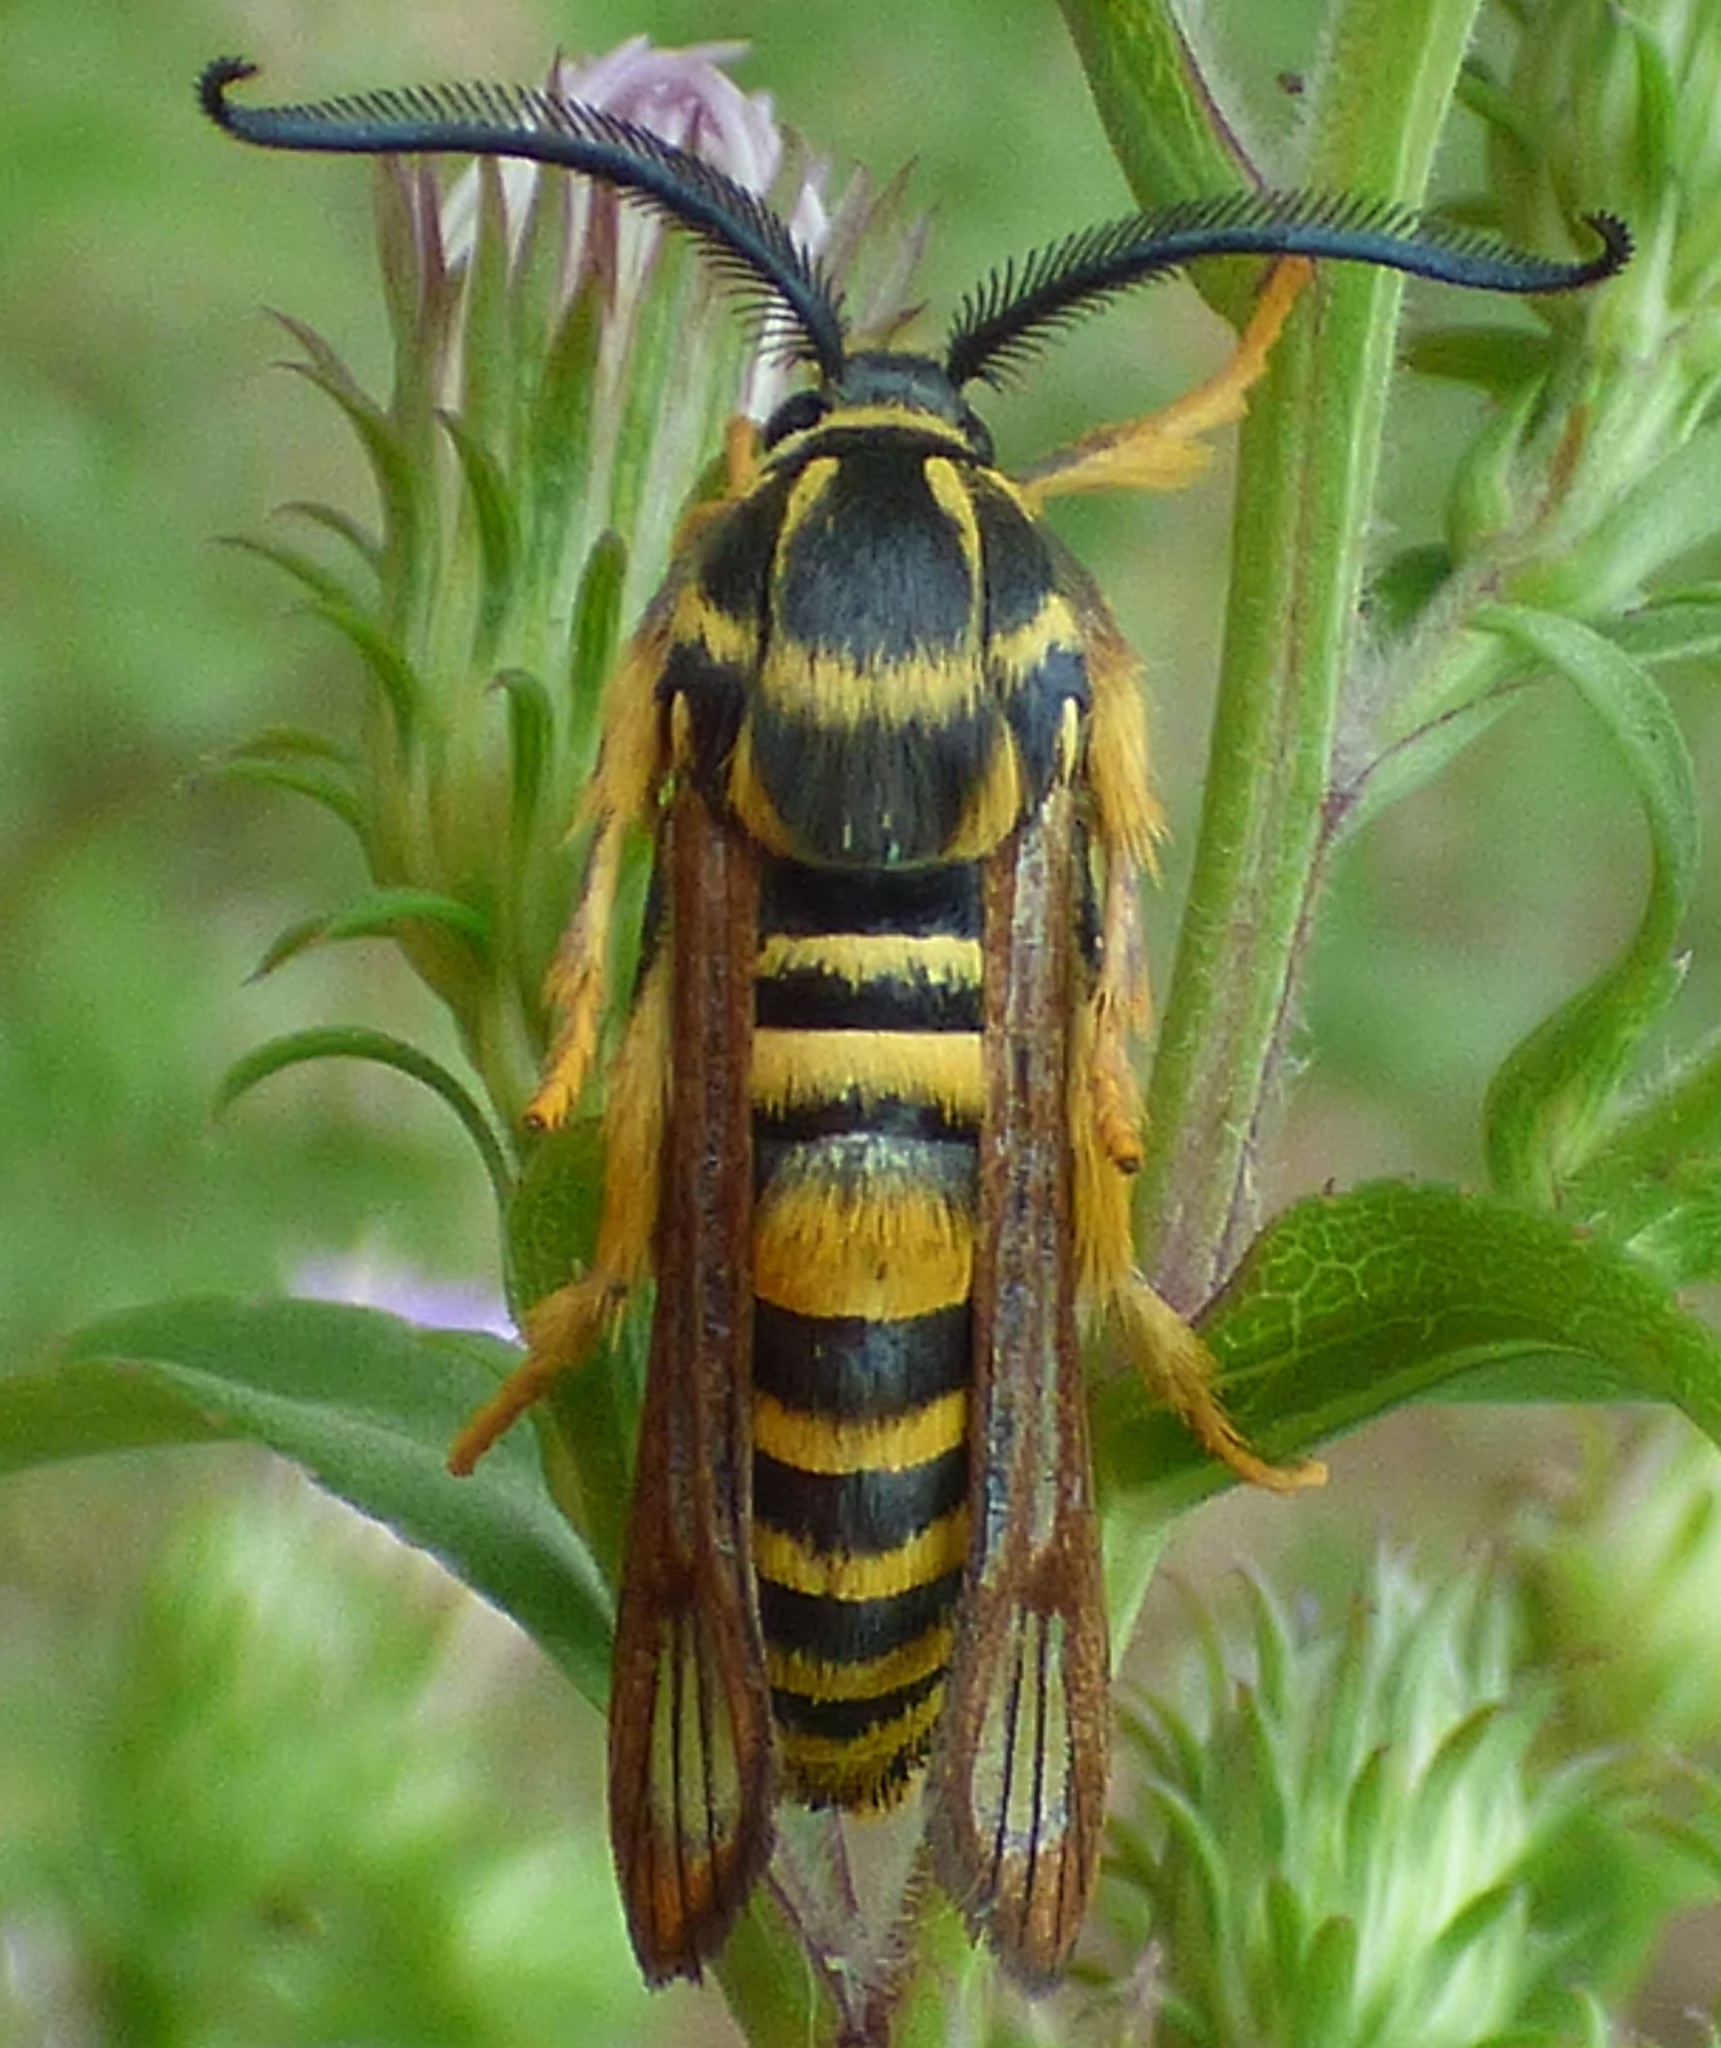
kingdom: Animalia
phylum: Arthropoda
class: Insecta
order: Lepidoptera
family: Sesiidae
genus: Pennisetia
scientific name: Pennisetia marginatum
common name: Raspberry crown borer
